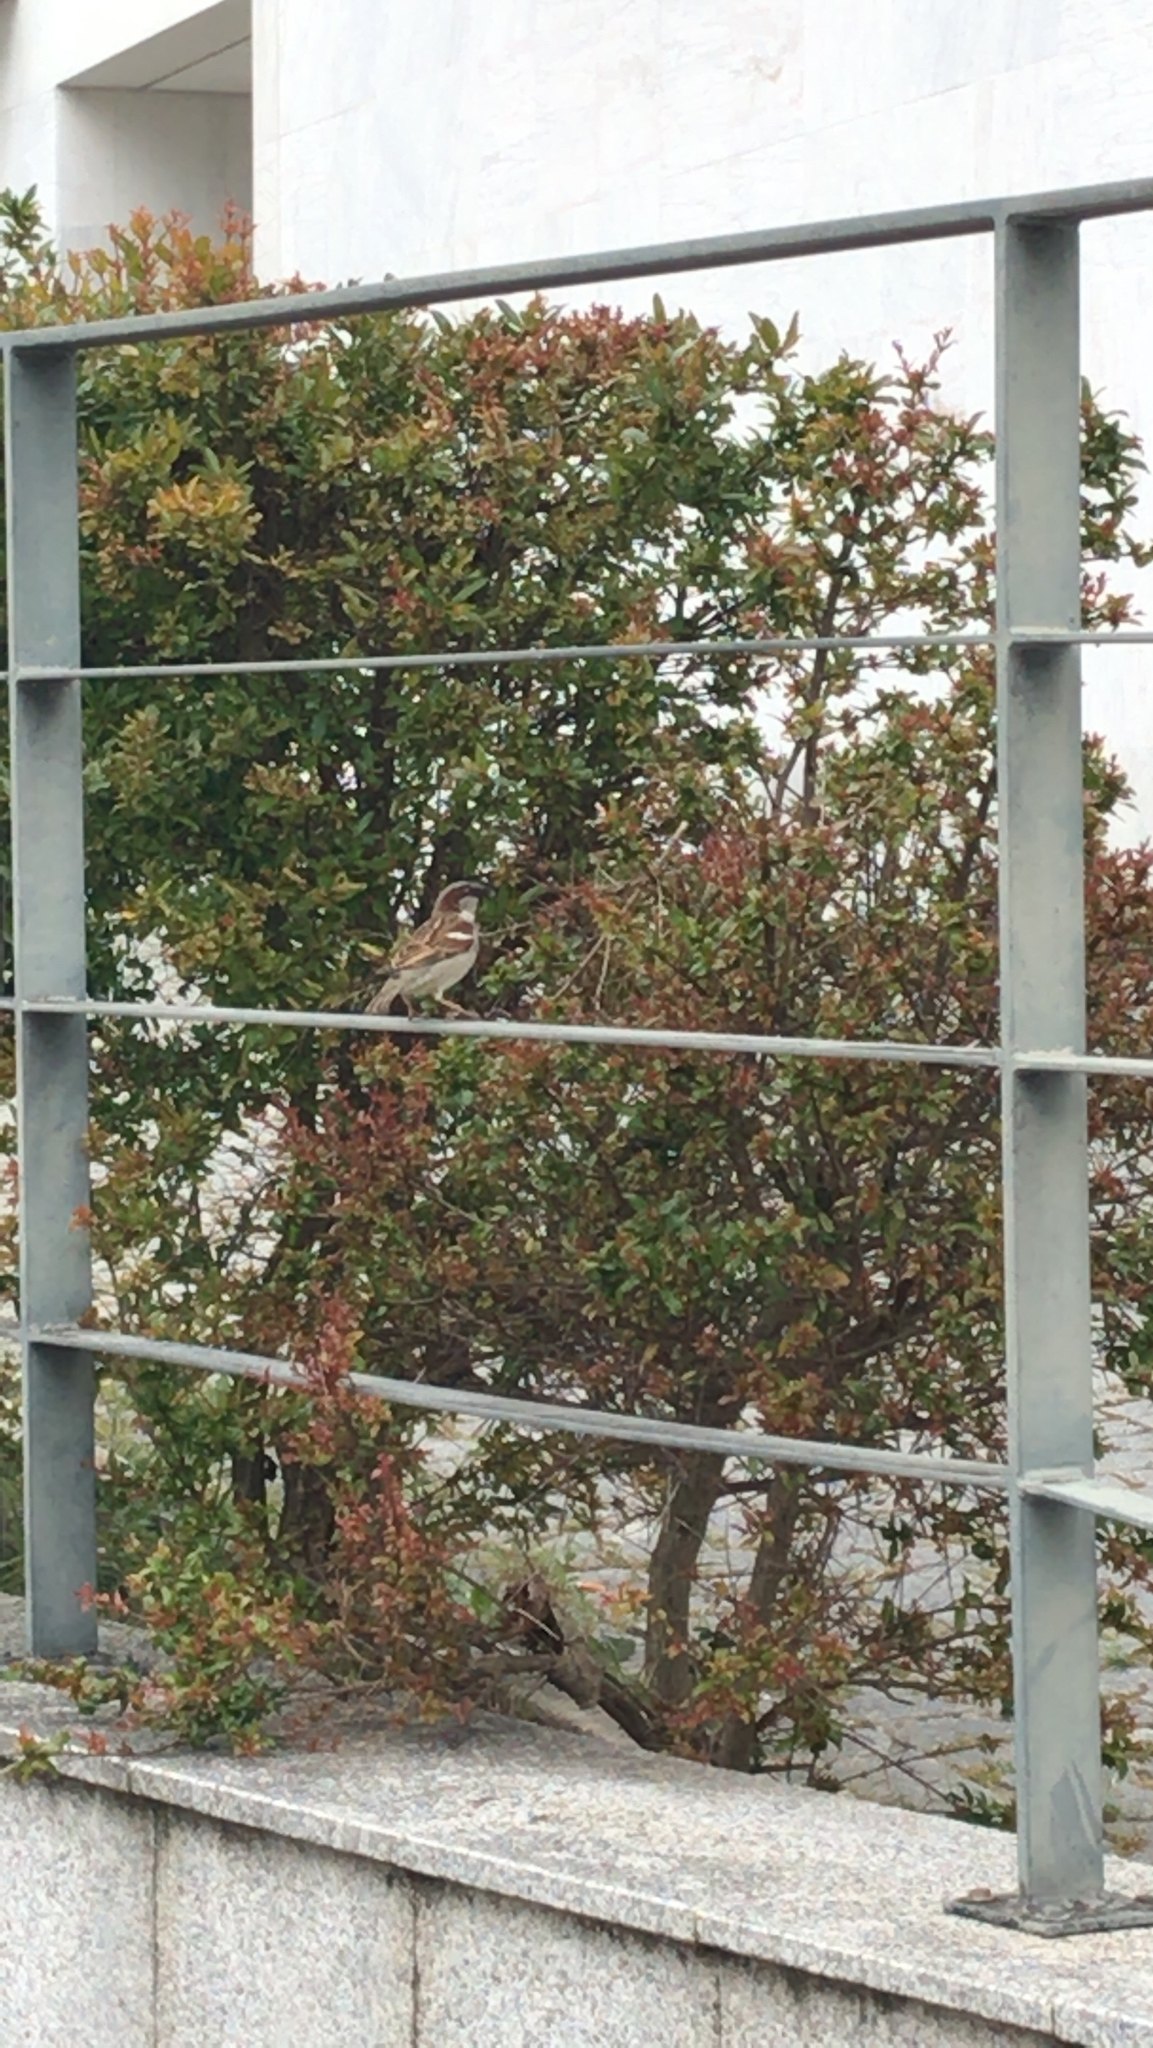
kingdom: Animalia
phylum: Chordata
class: Aves
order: Passeriformes
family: Passeridae
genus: Passer
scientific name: Passer domesticus
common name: House sparrow
